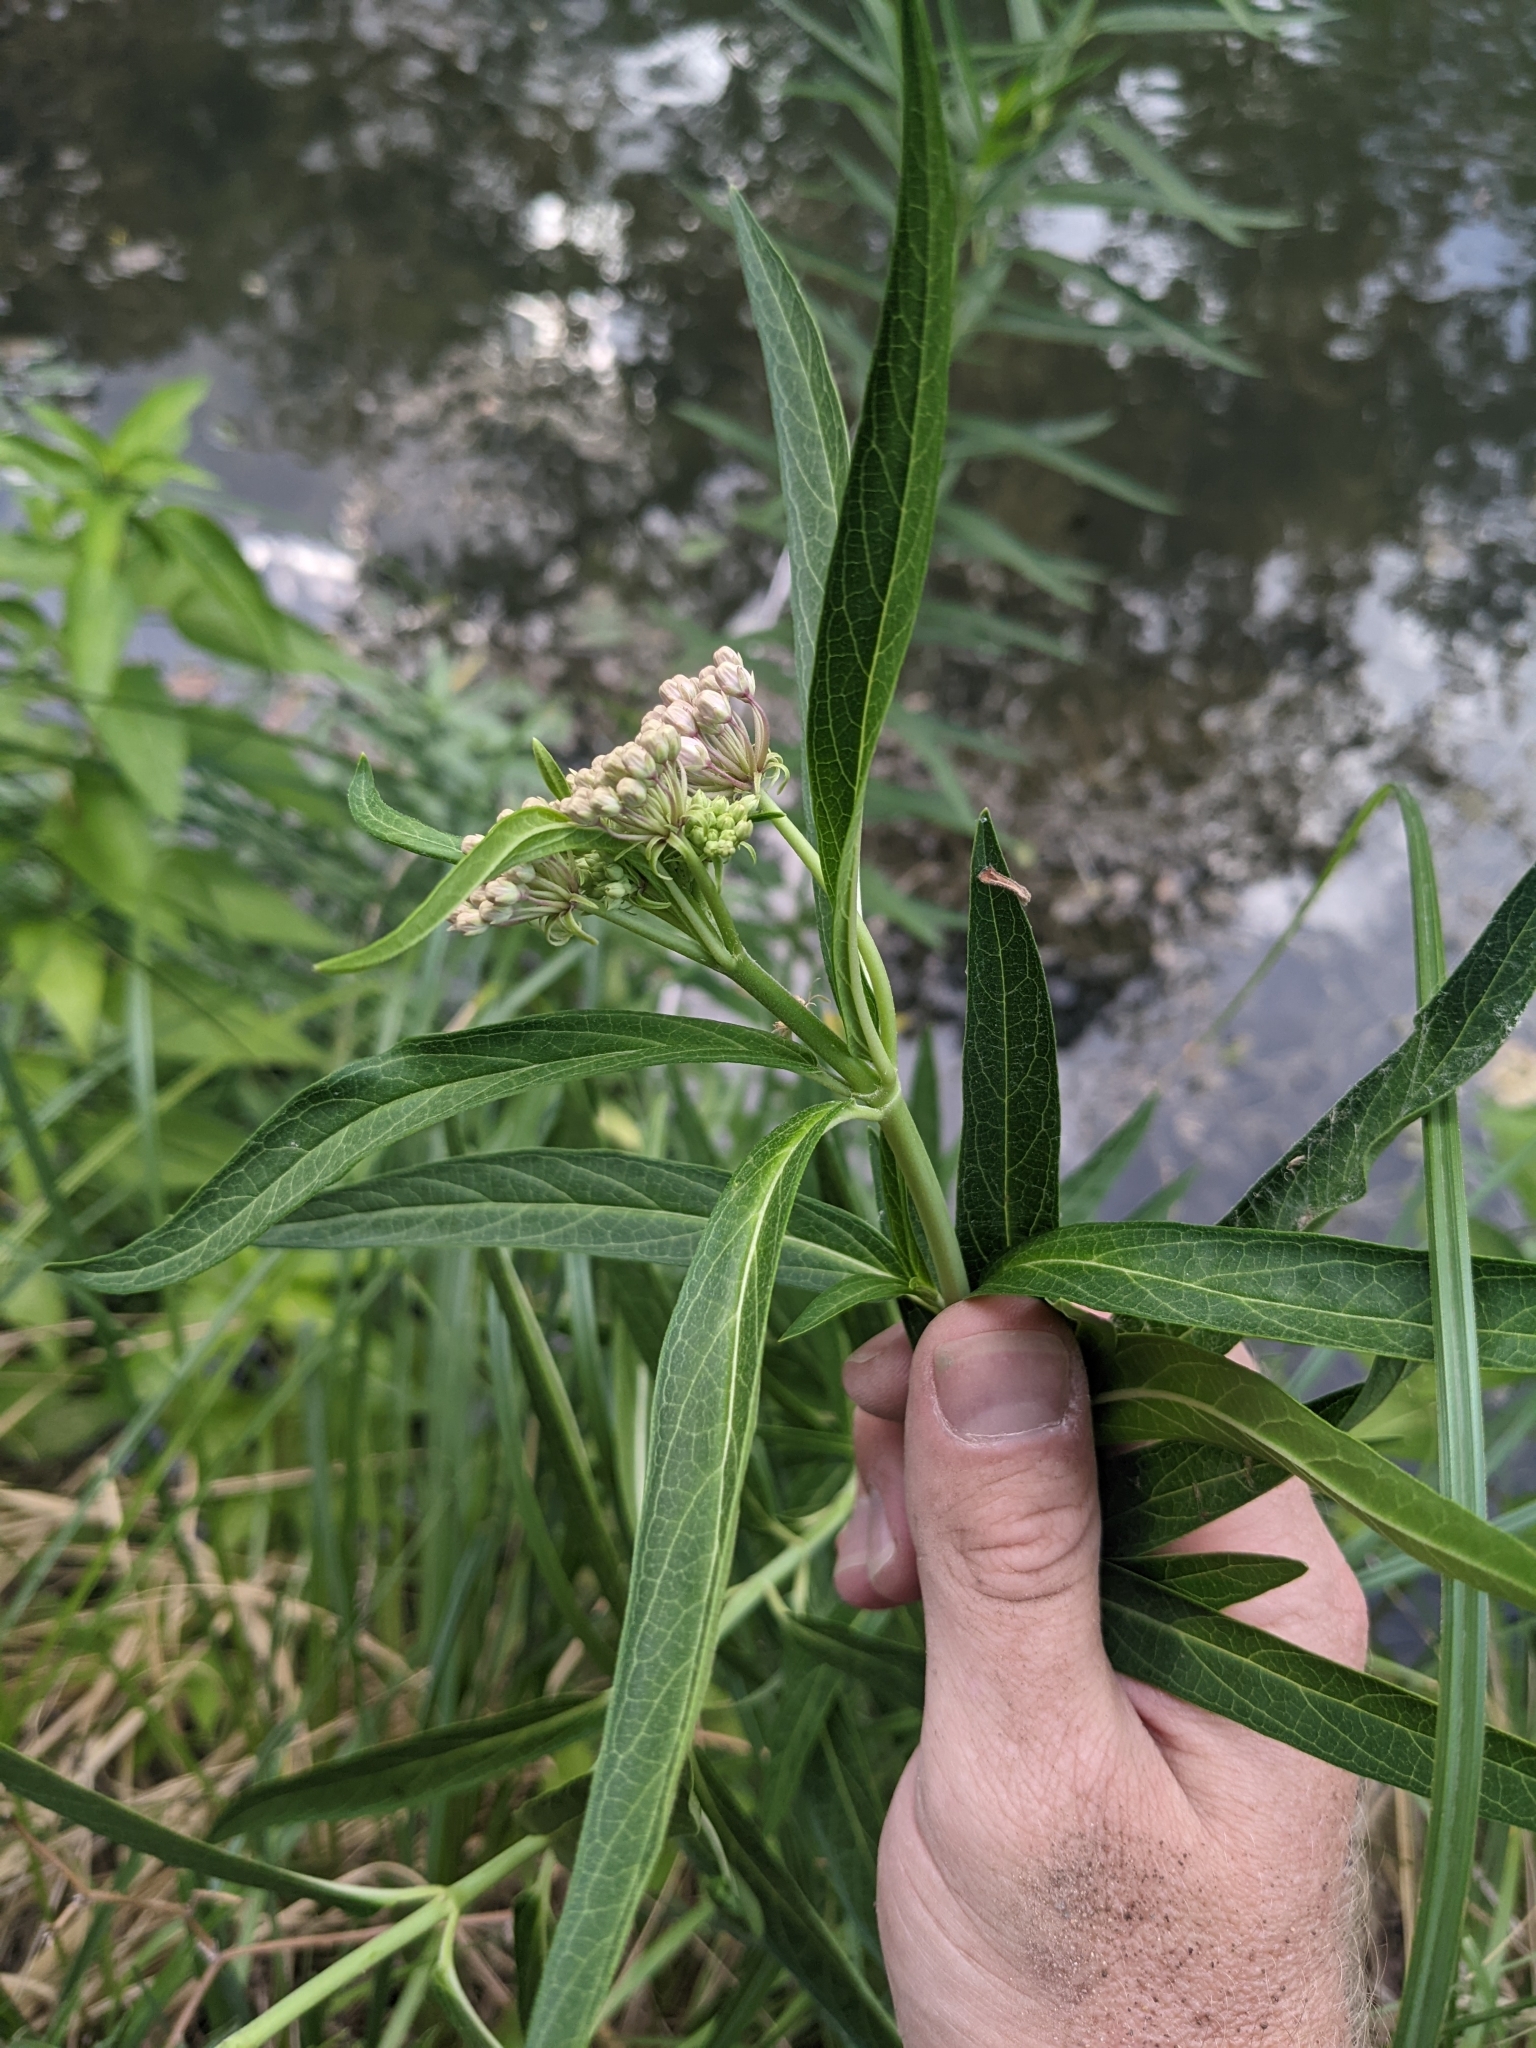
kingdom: Plantae
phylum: Tracheophyta
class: Magnoliopsida
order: Gentianales
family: Apocynaceae
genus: Asclepias
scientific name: Asclepias incarnata
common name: Swamp milkweed
